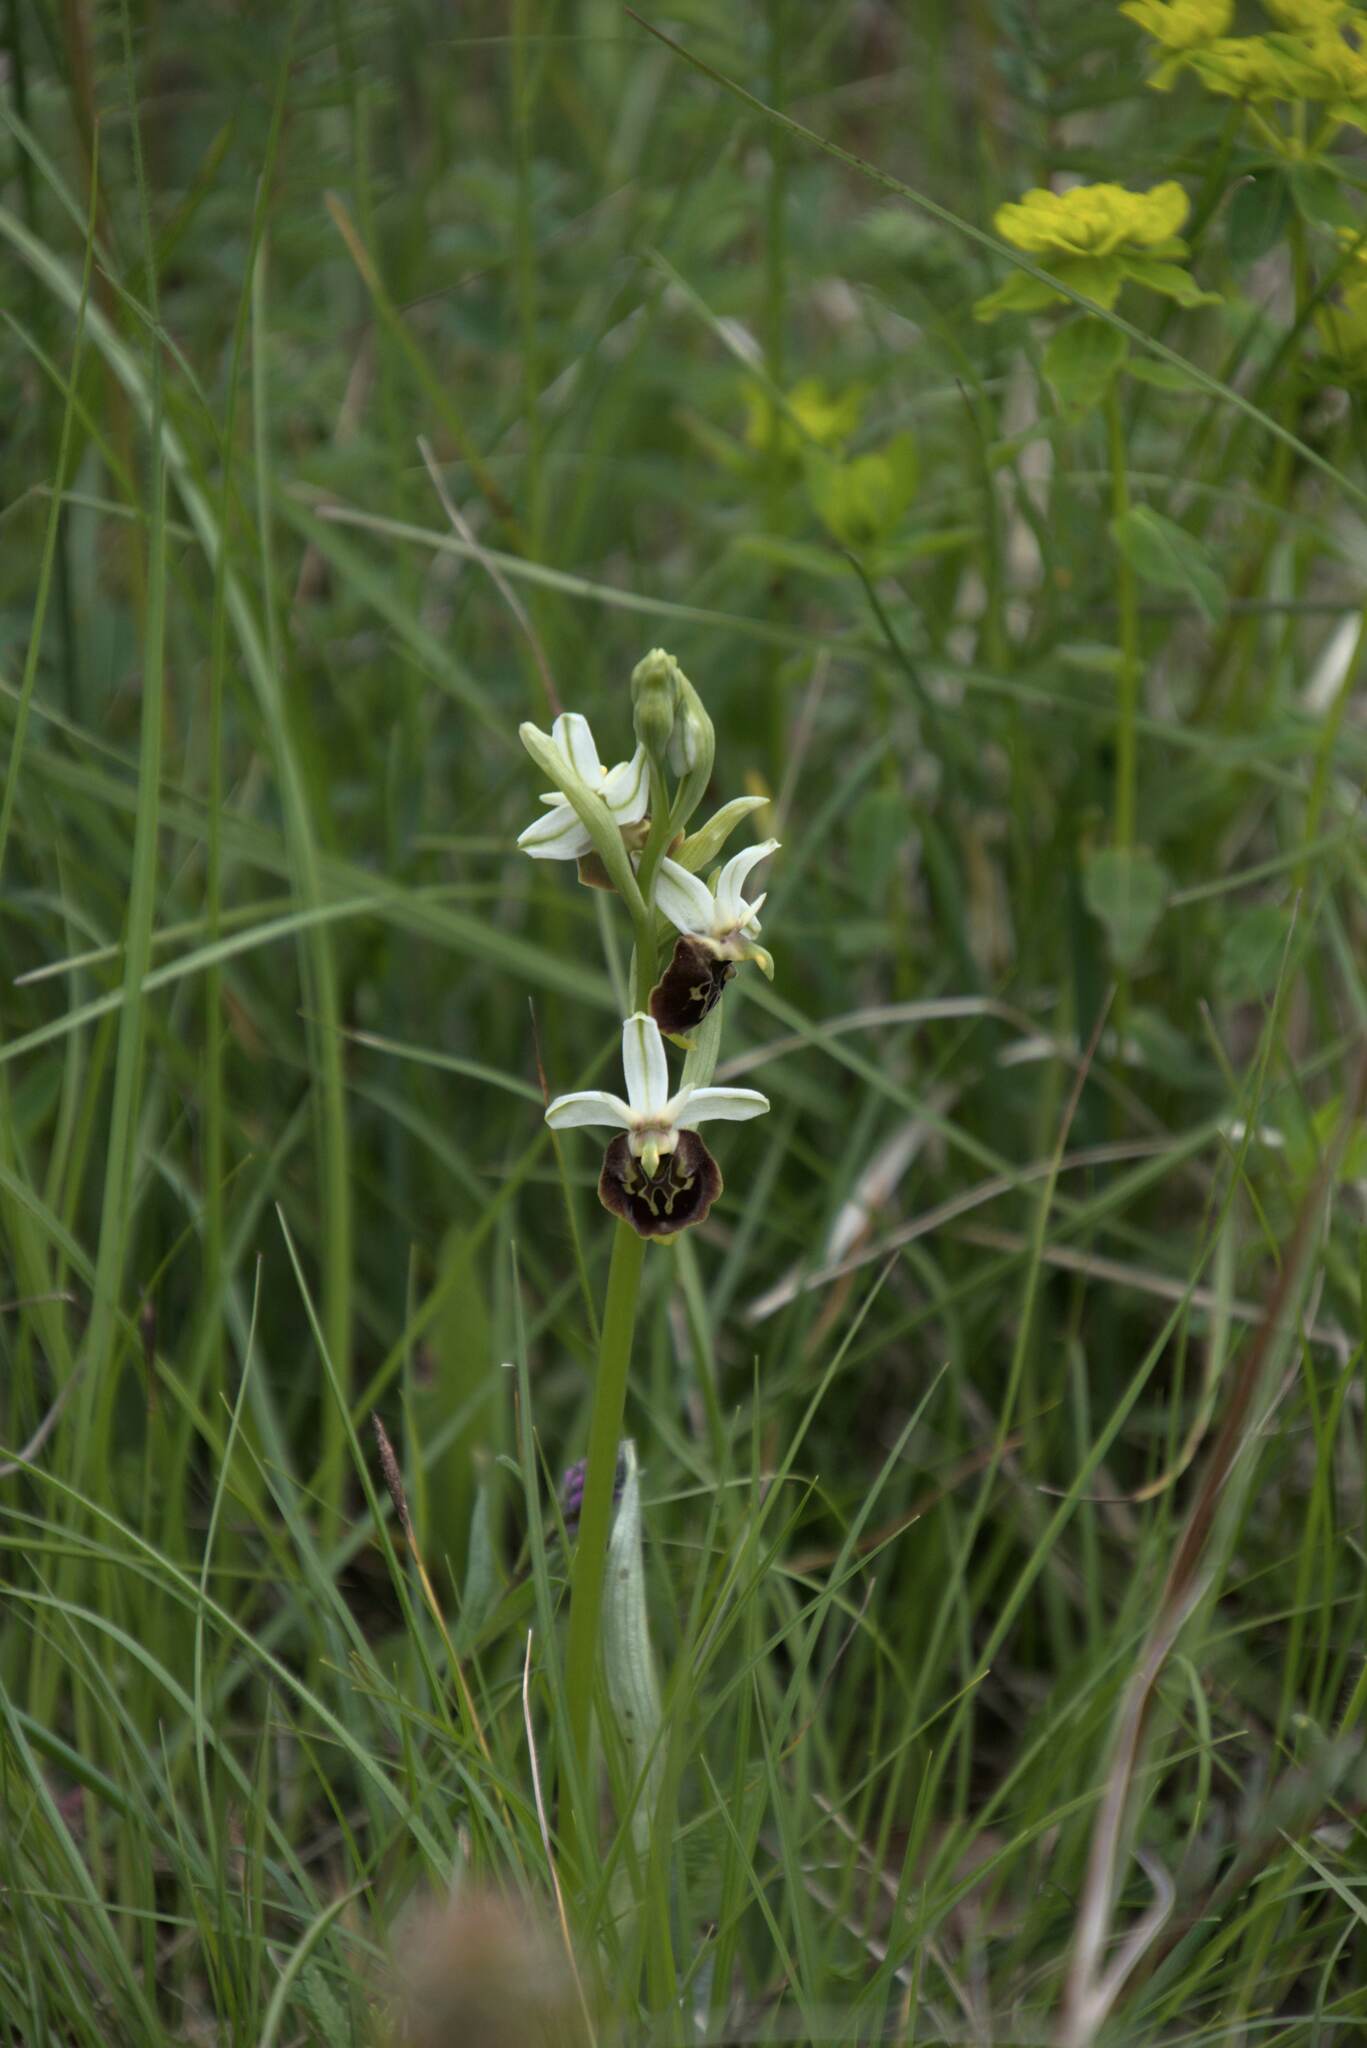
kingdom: Plantae
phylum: Tracheophyta
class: Liliopsida
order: Asparagales
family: Orchidaceae
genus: Ophrys
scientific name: Ophrys holosericea
